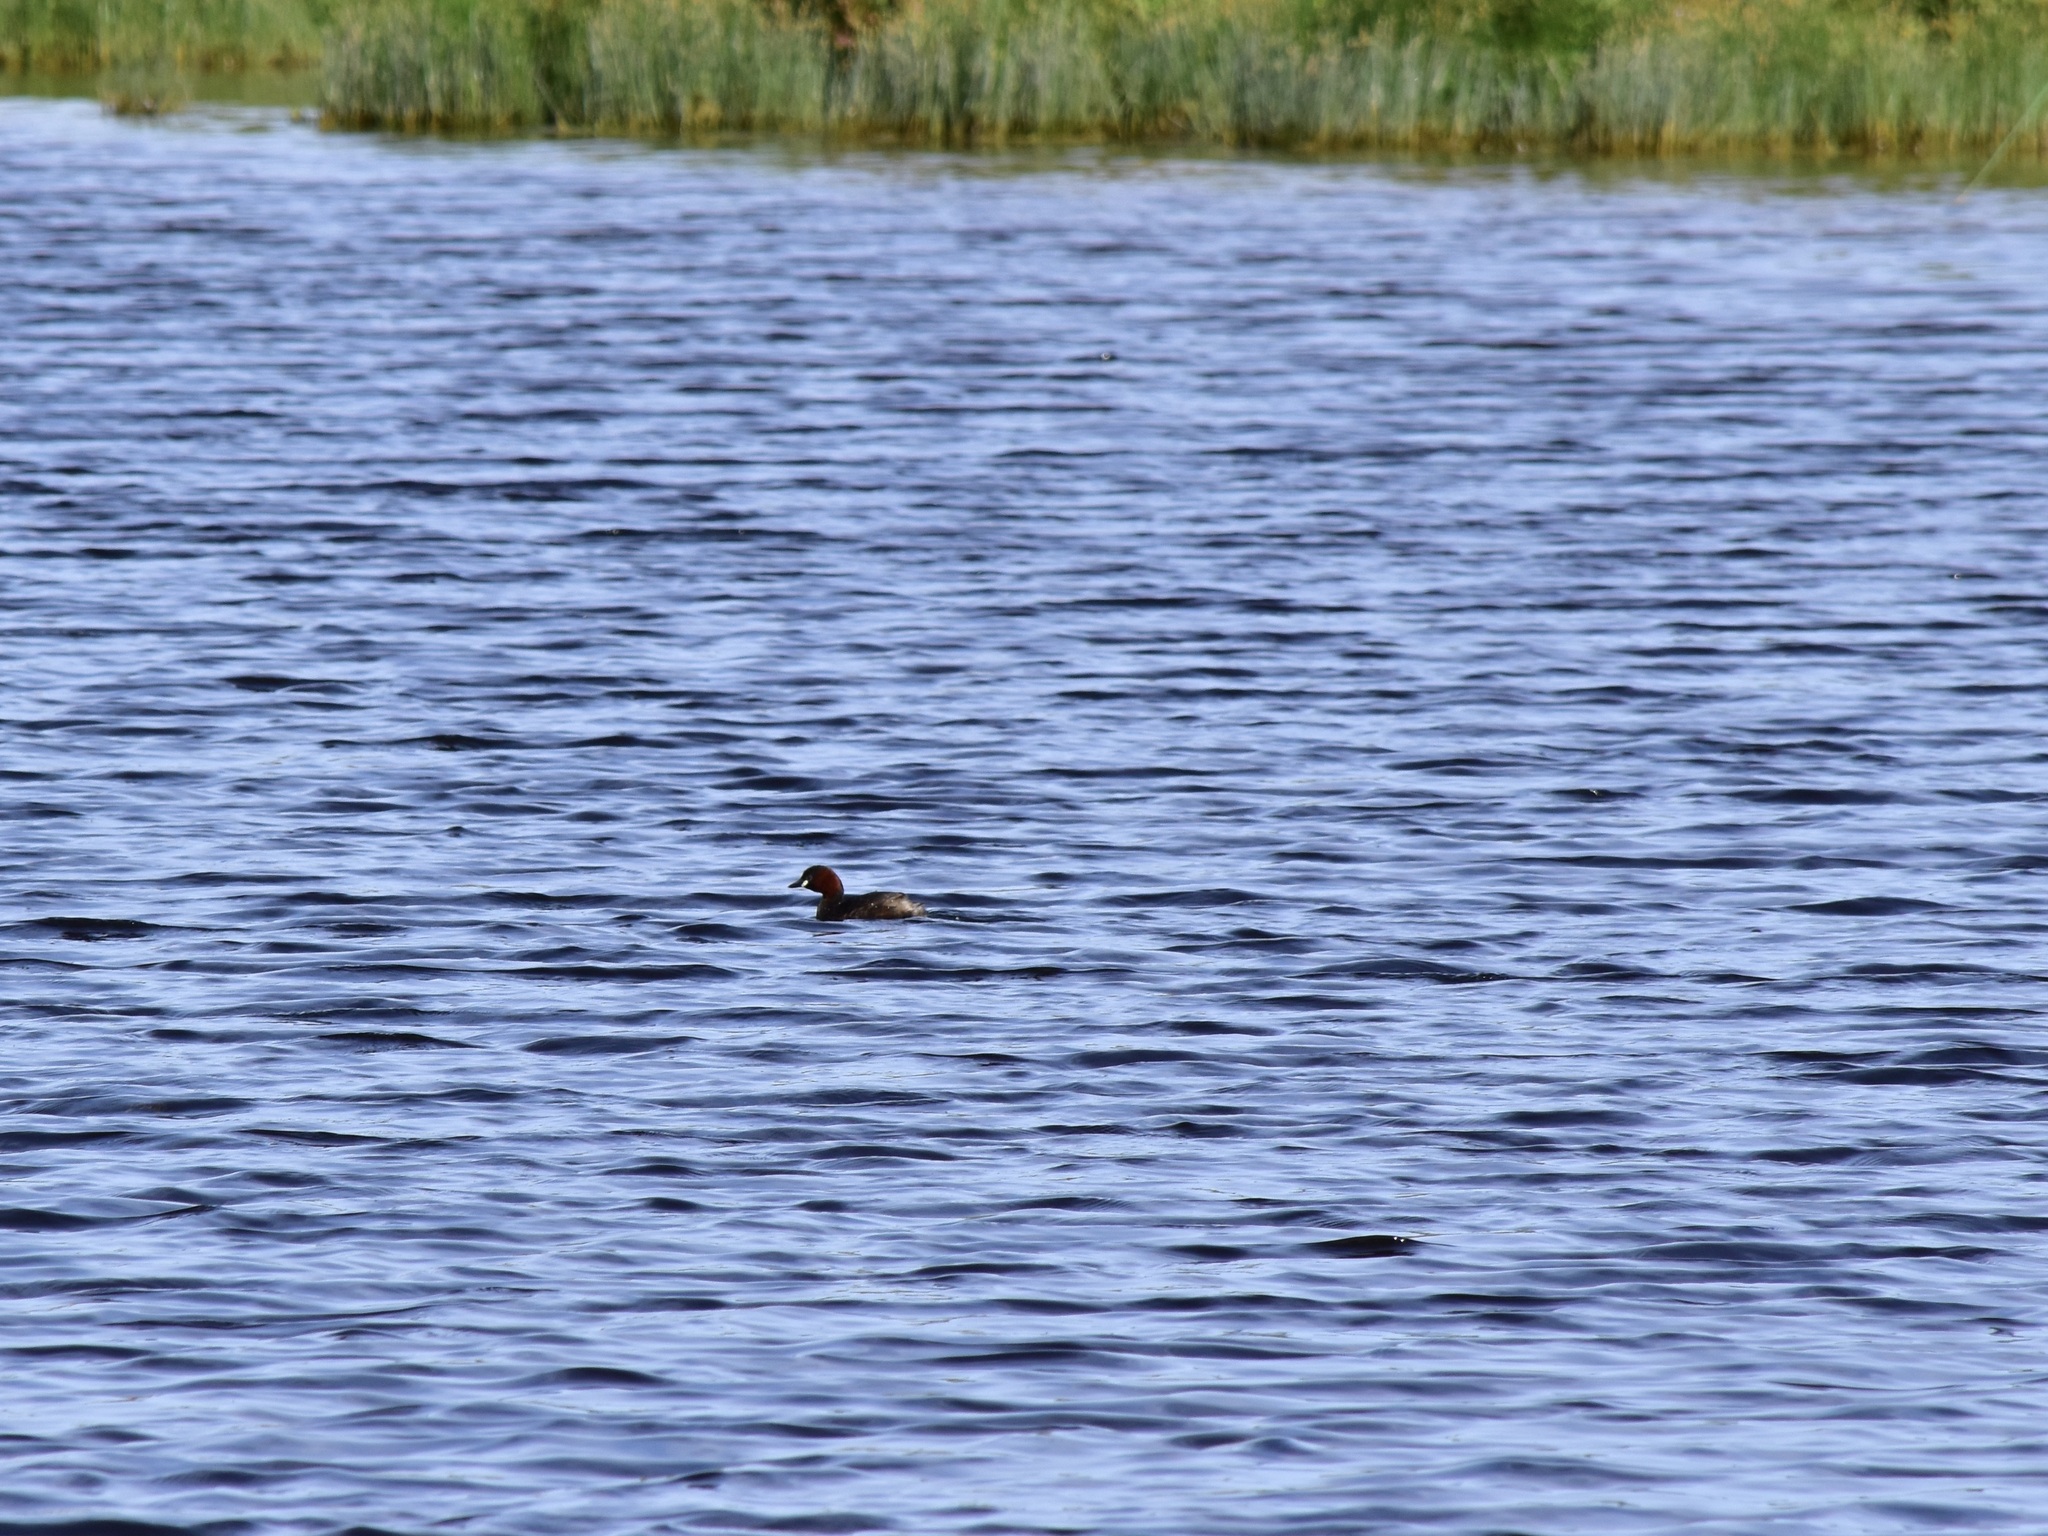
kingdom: Animalia
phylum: Chordata
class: Aves
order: Podicipediformes
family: Podicipedidae
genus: Tachybaptus
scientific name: Tachybaptus ruficollis
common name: Little grebe
